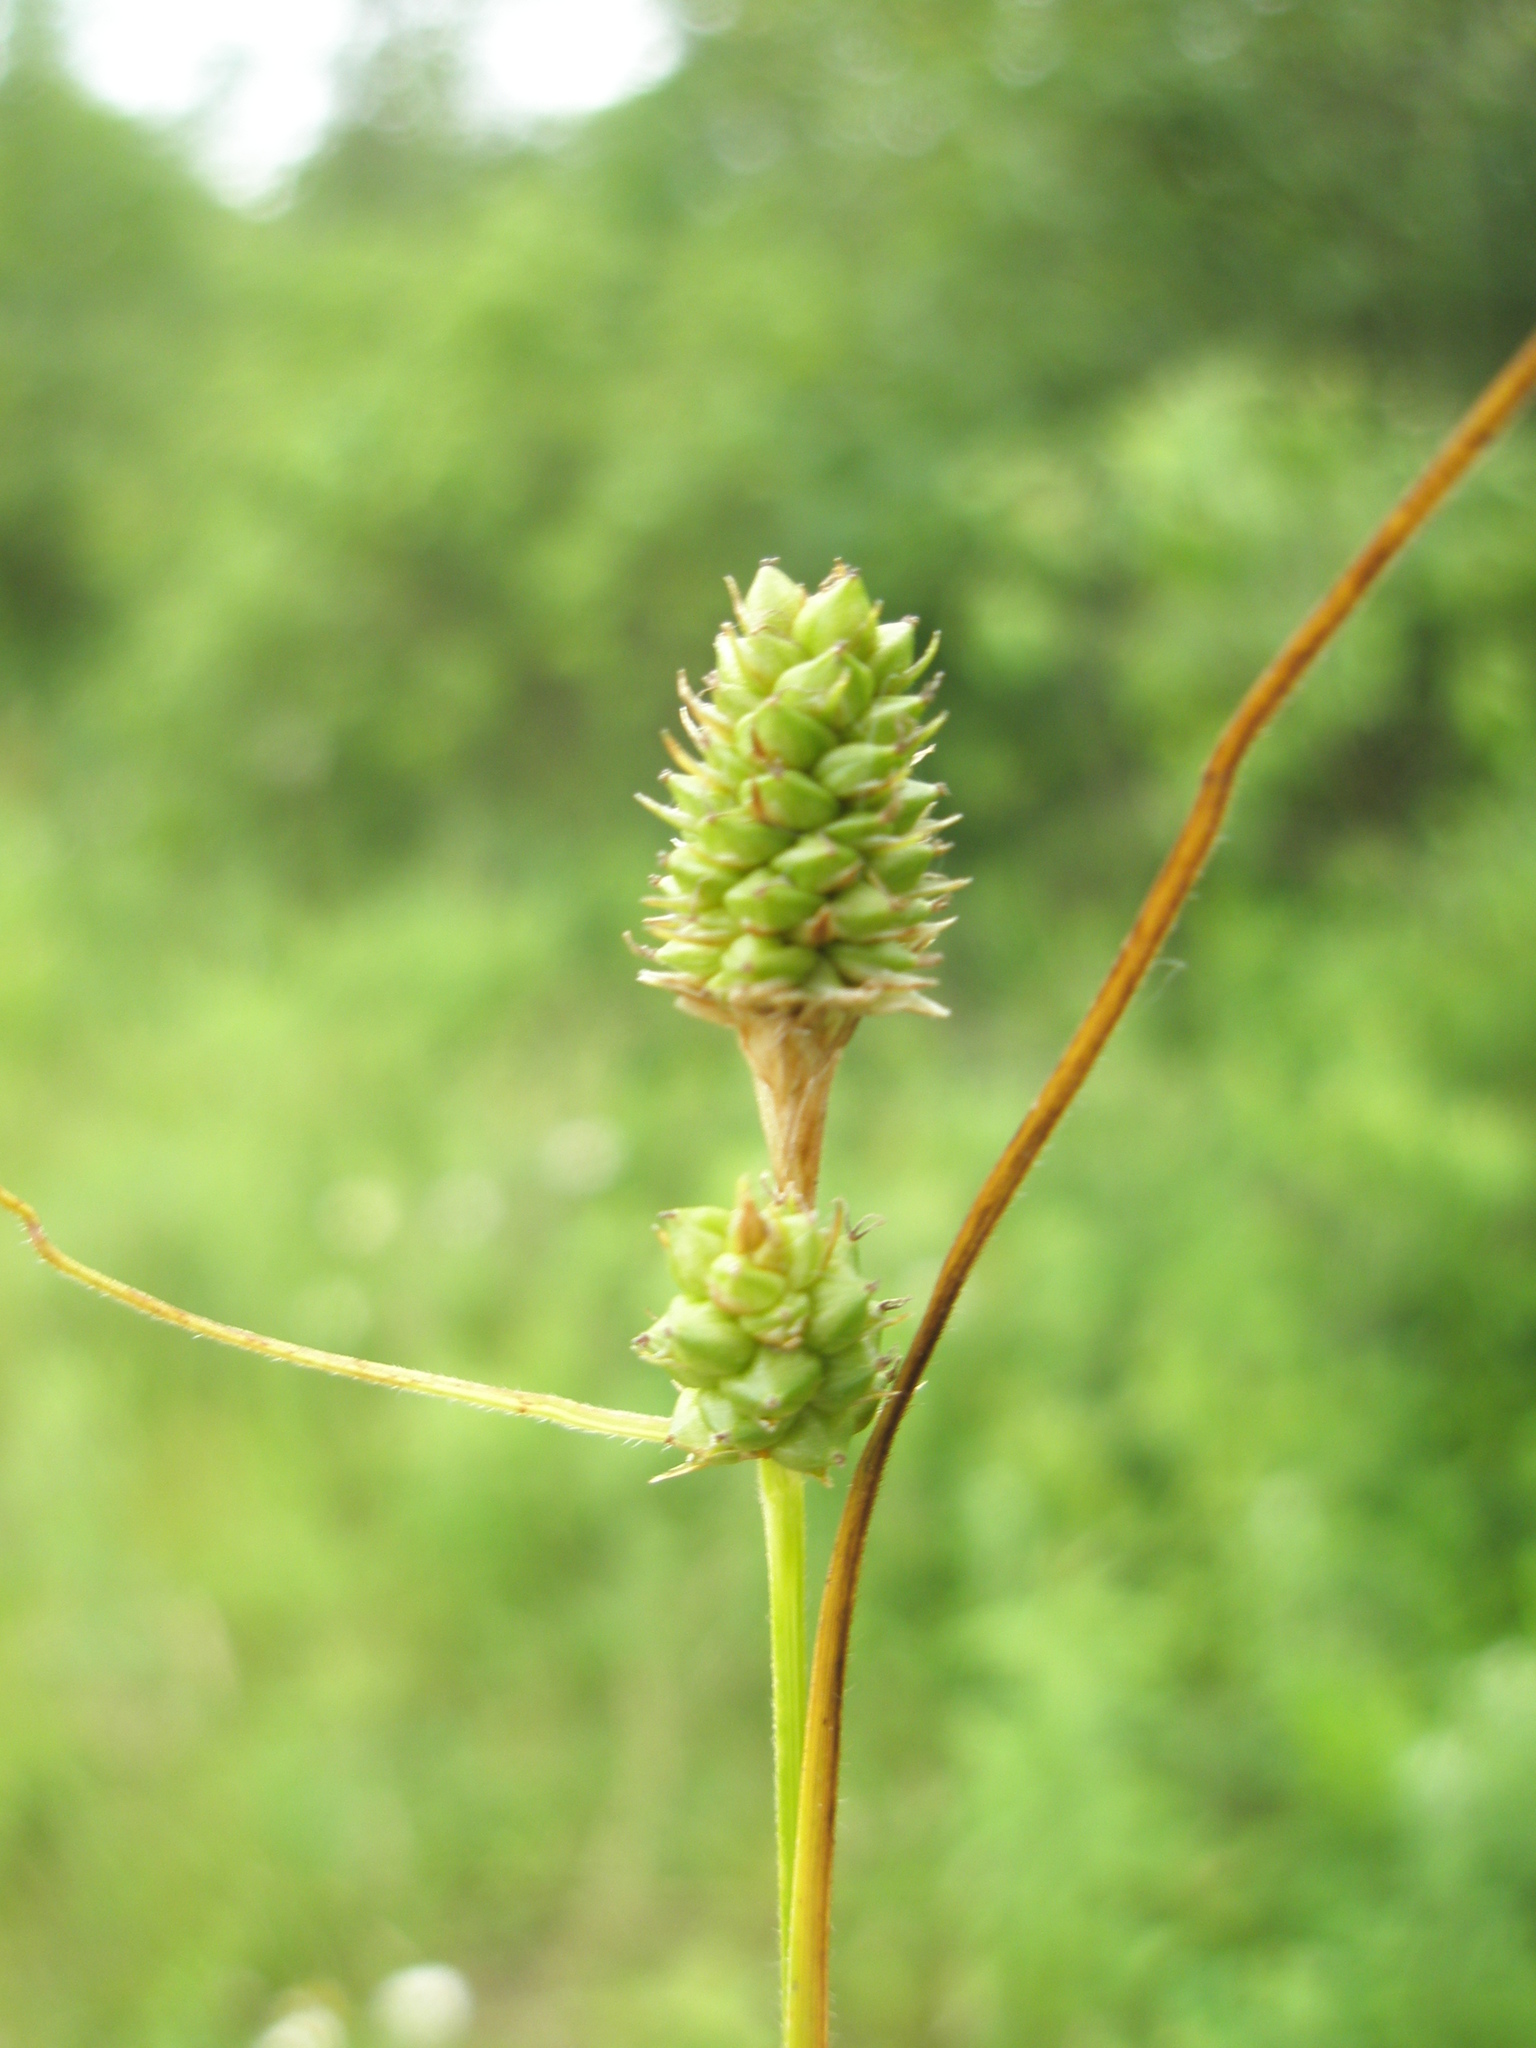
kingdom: Plantae
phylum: Tracheophyta
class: Liliopsida
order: Poales
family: Cyperaceae
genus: Carex
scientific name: Carex bushii
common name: Bush's sedge
